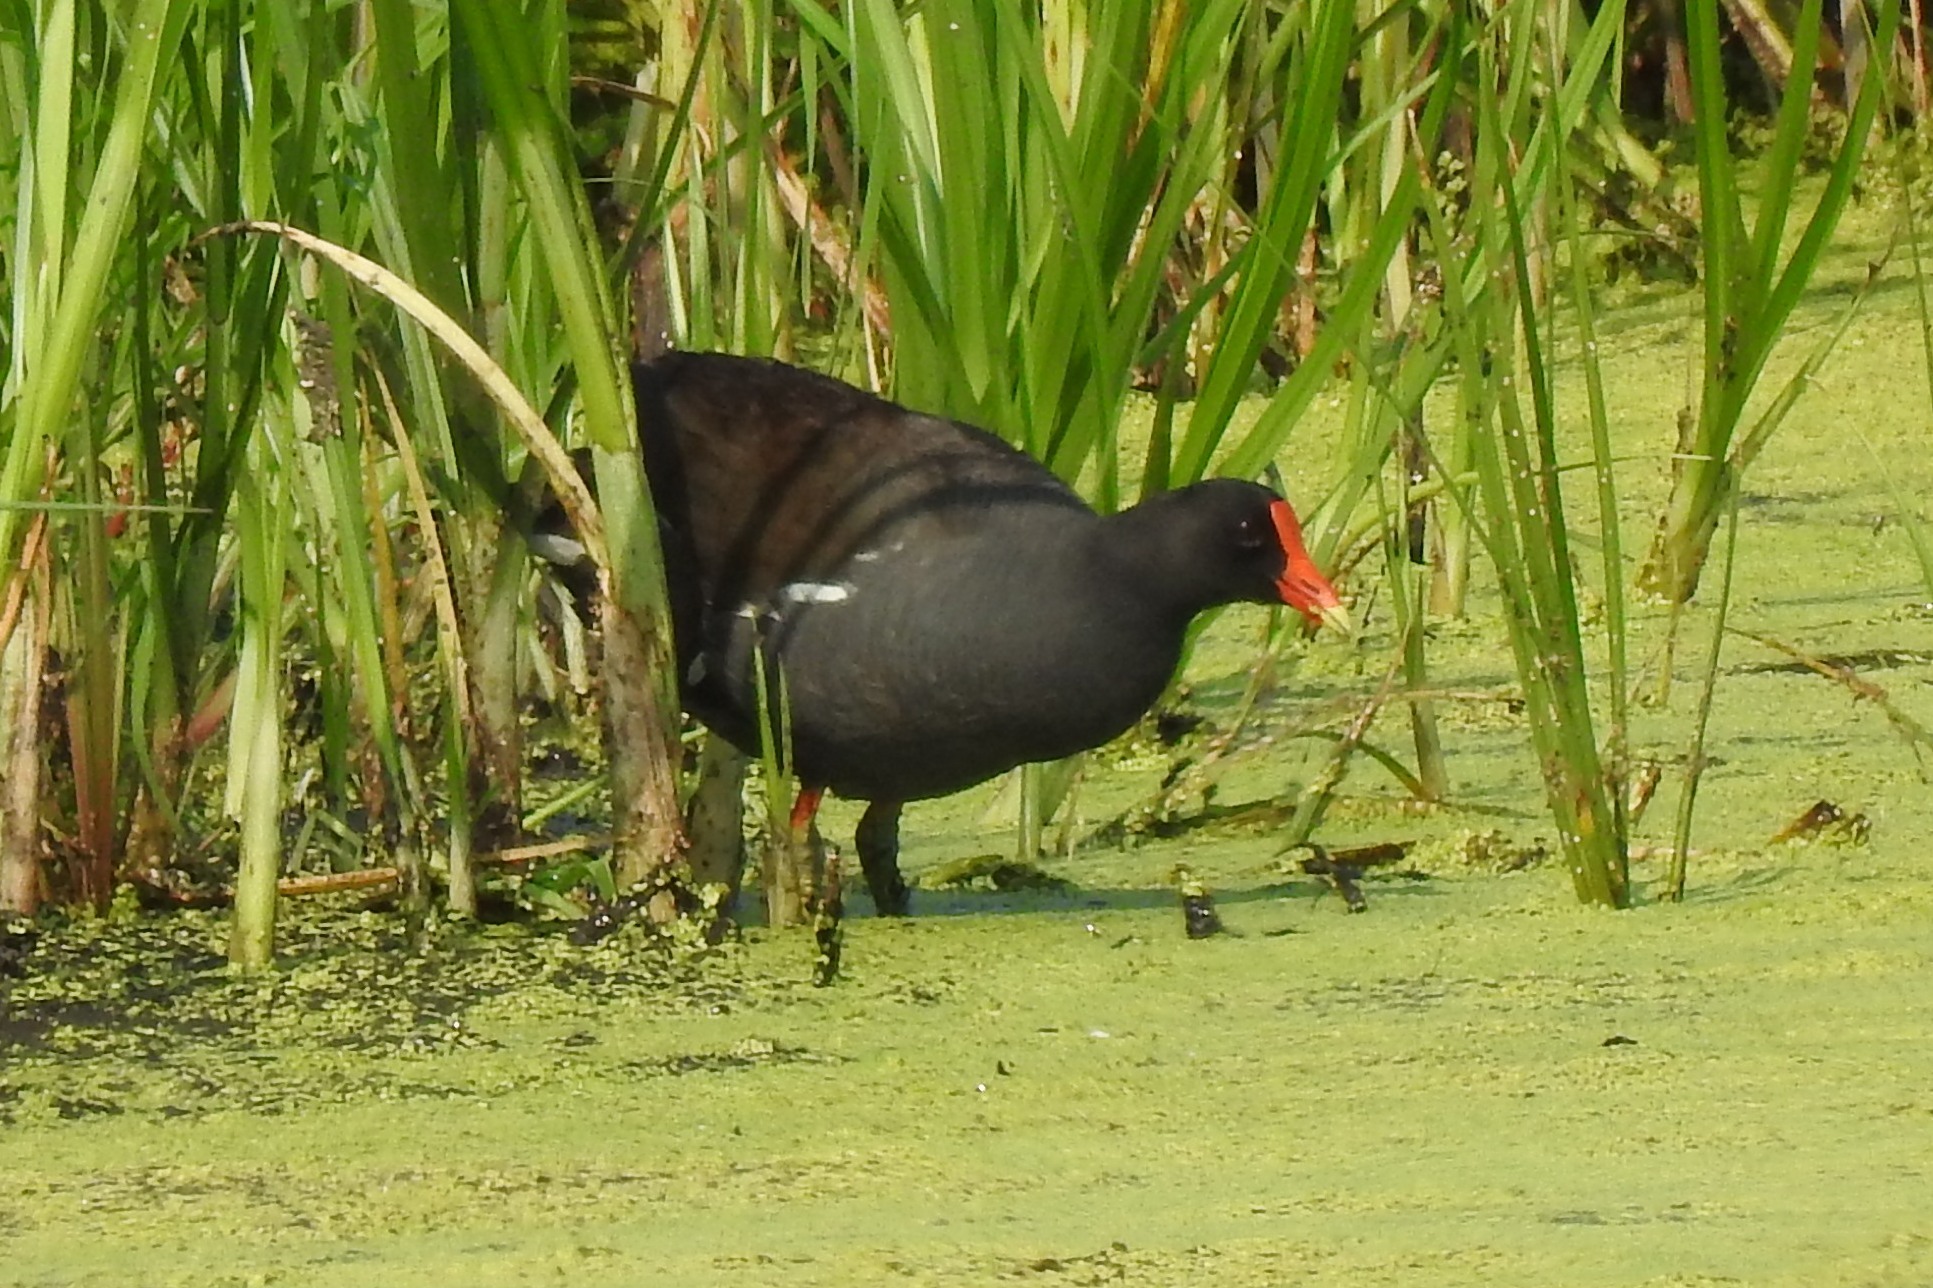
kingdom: Animalia
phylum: Chordata
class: Aves
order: Gruiformes
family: Rallidae
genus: Gallinula
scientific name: Gallinula chloropus
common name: Common moorhen
